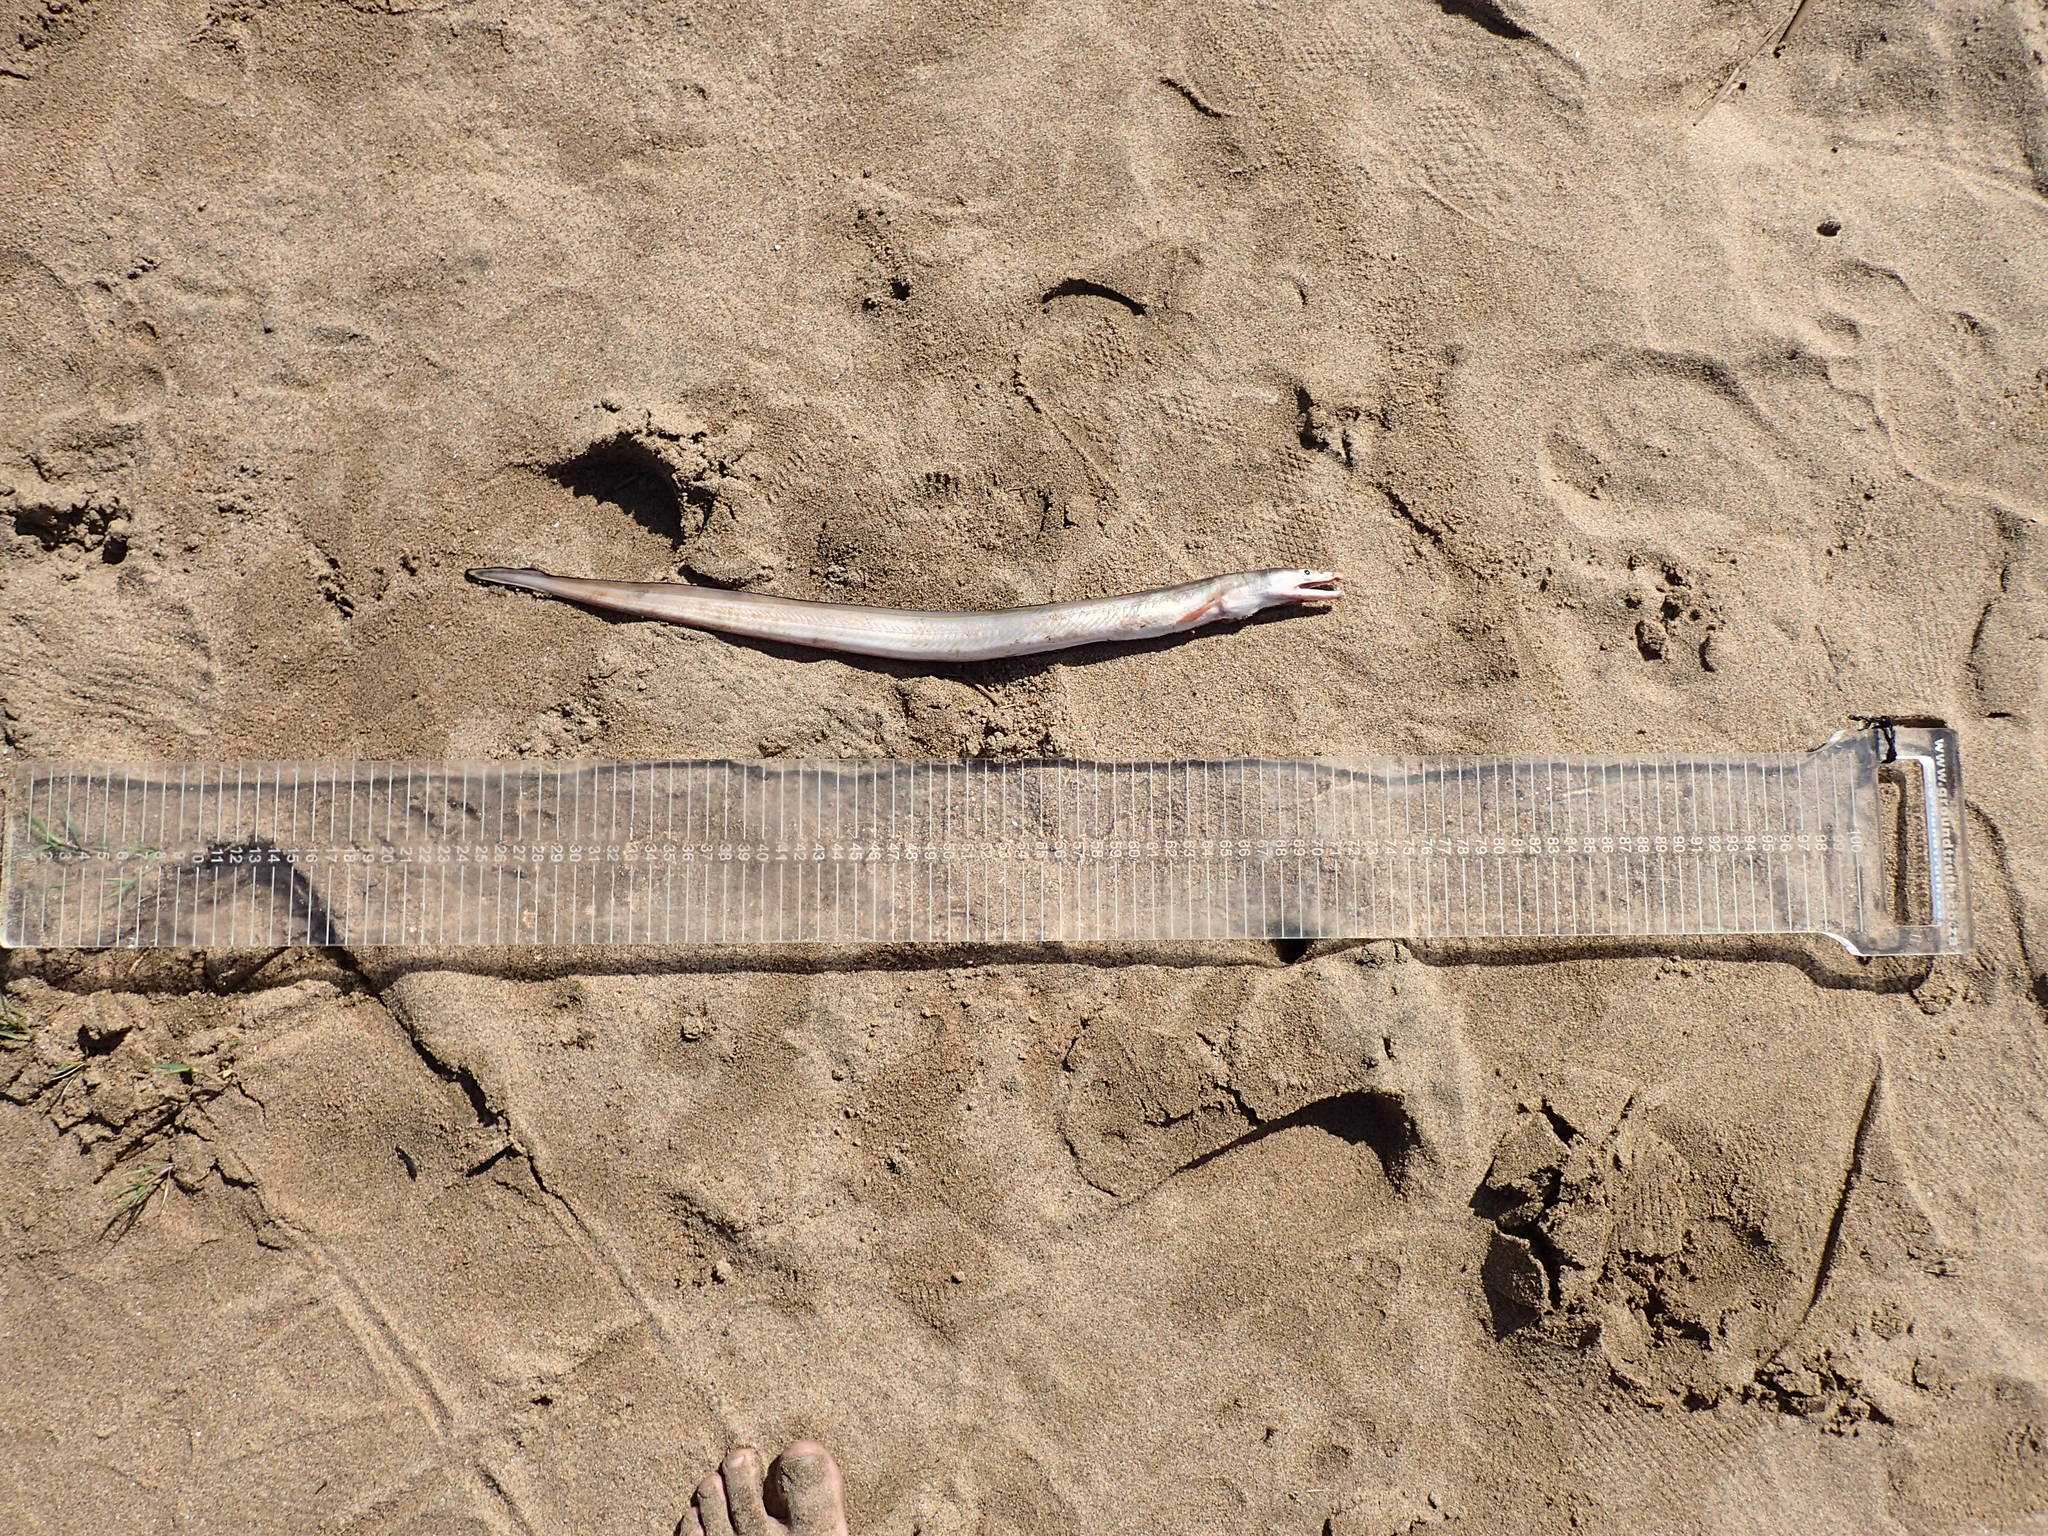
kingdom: Animalia
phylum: Chordata
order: Anguilliformes
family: Muraenesocidae
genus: Muraenesox
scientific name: Muraenesox bagio
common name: Common pike conger
